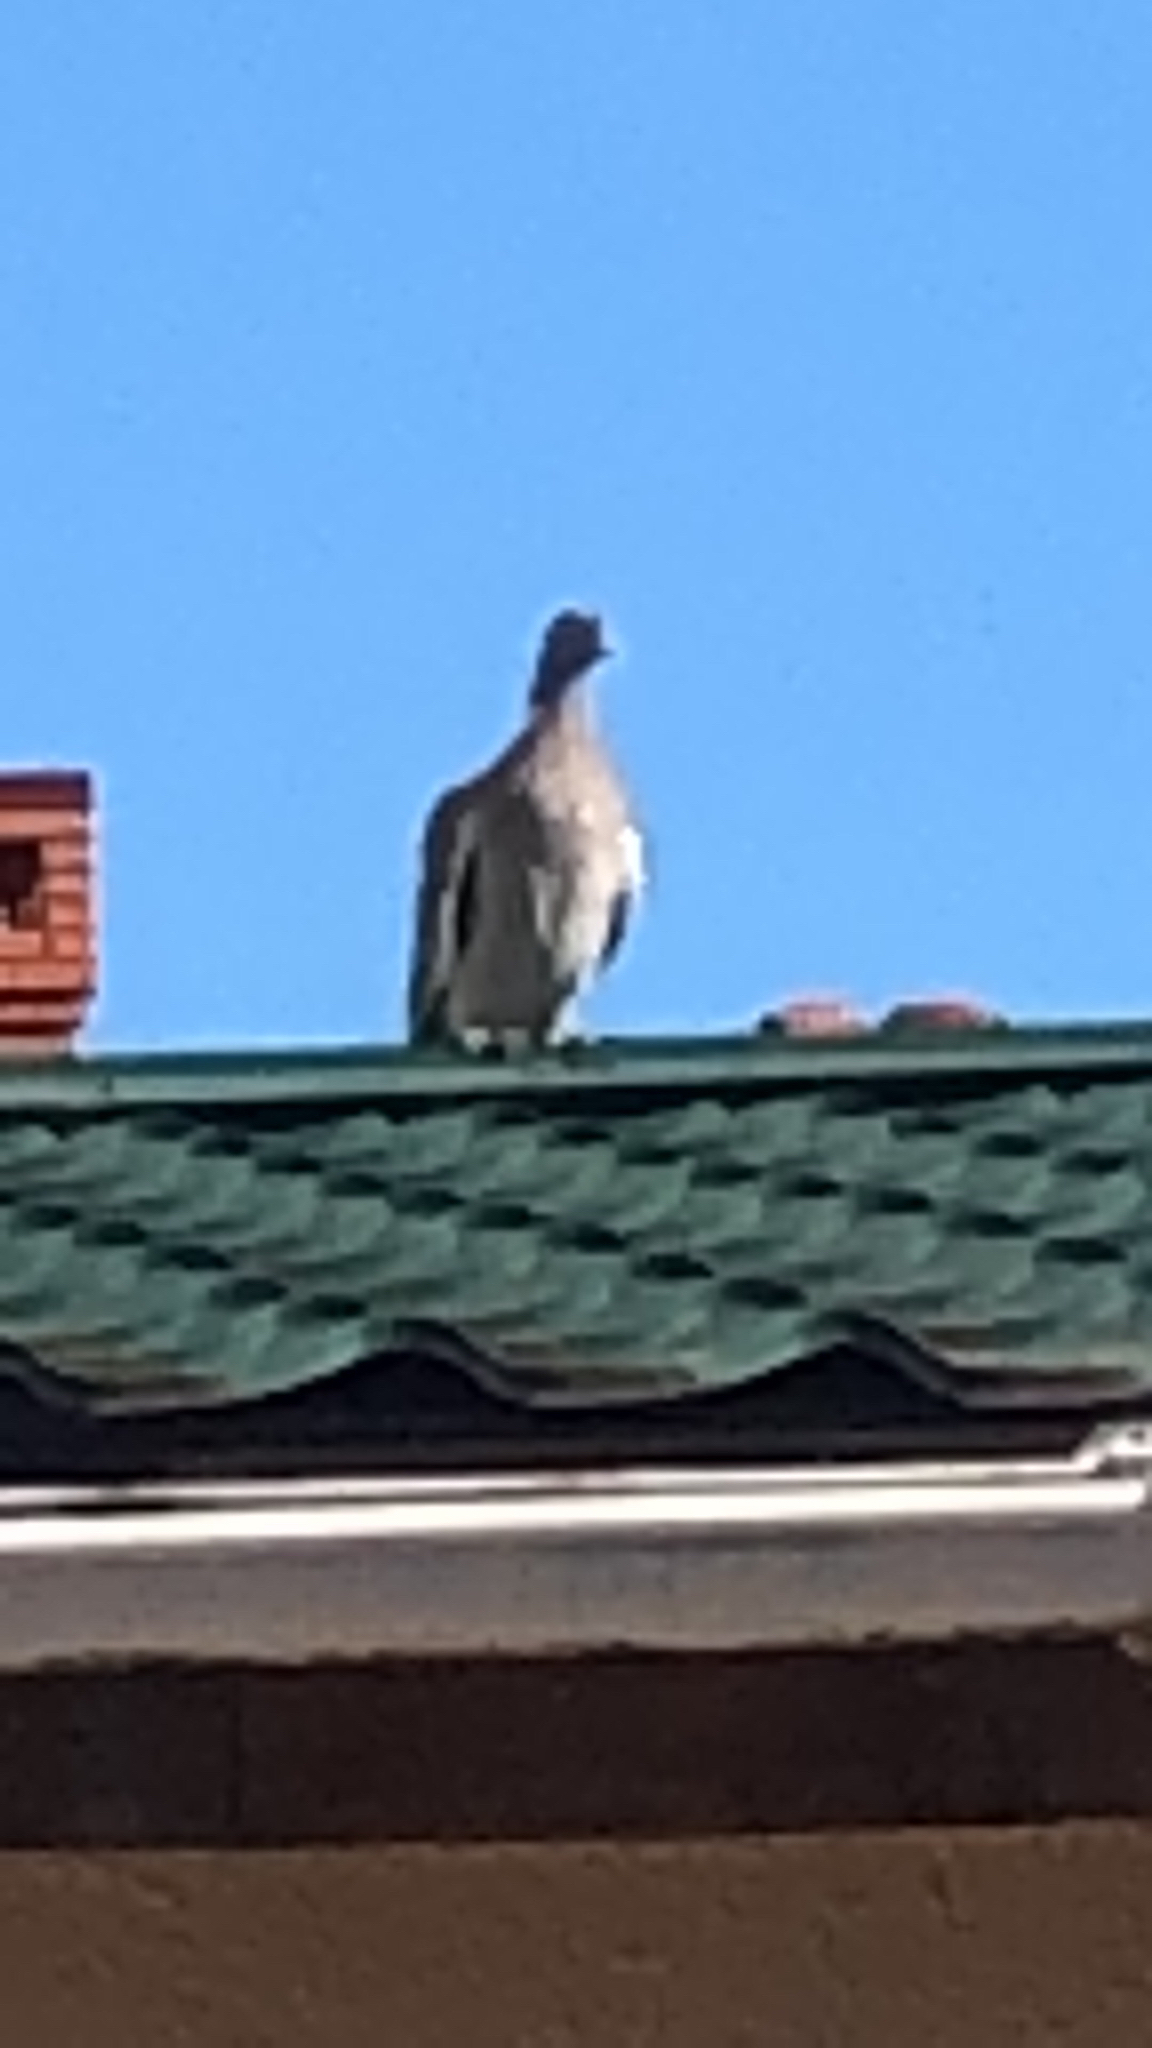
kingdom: Animalia
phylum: Chordata
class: Aves
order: Columbiformes
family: Columbidae
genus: Columba
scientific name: Columba palumbus
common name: Common wood pigeon
